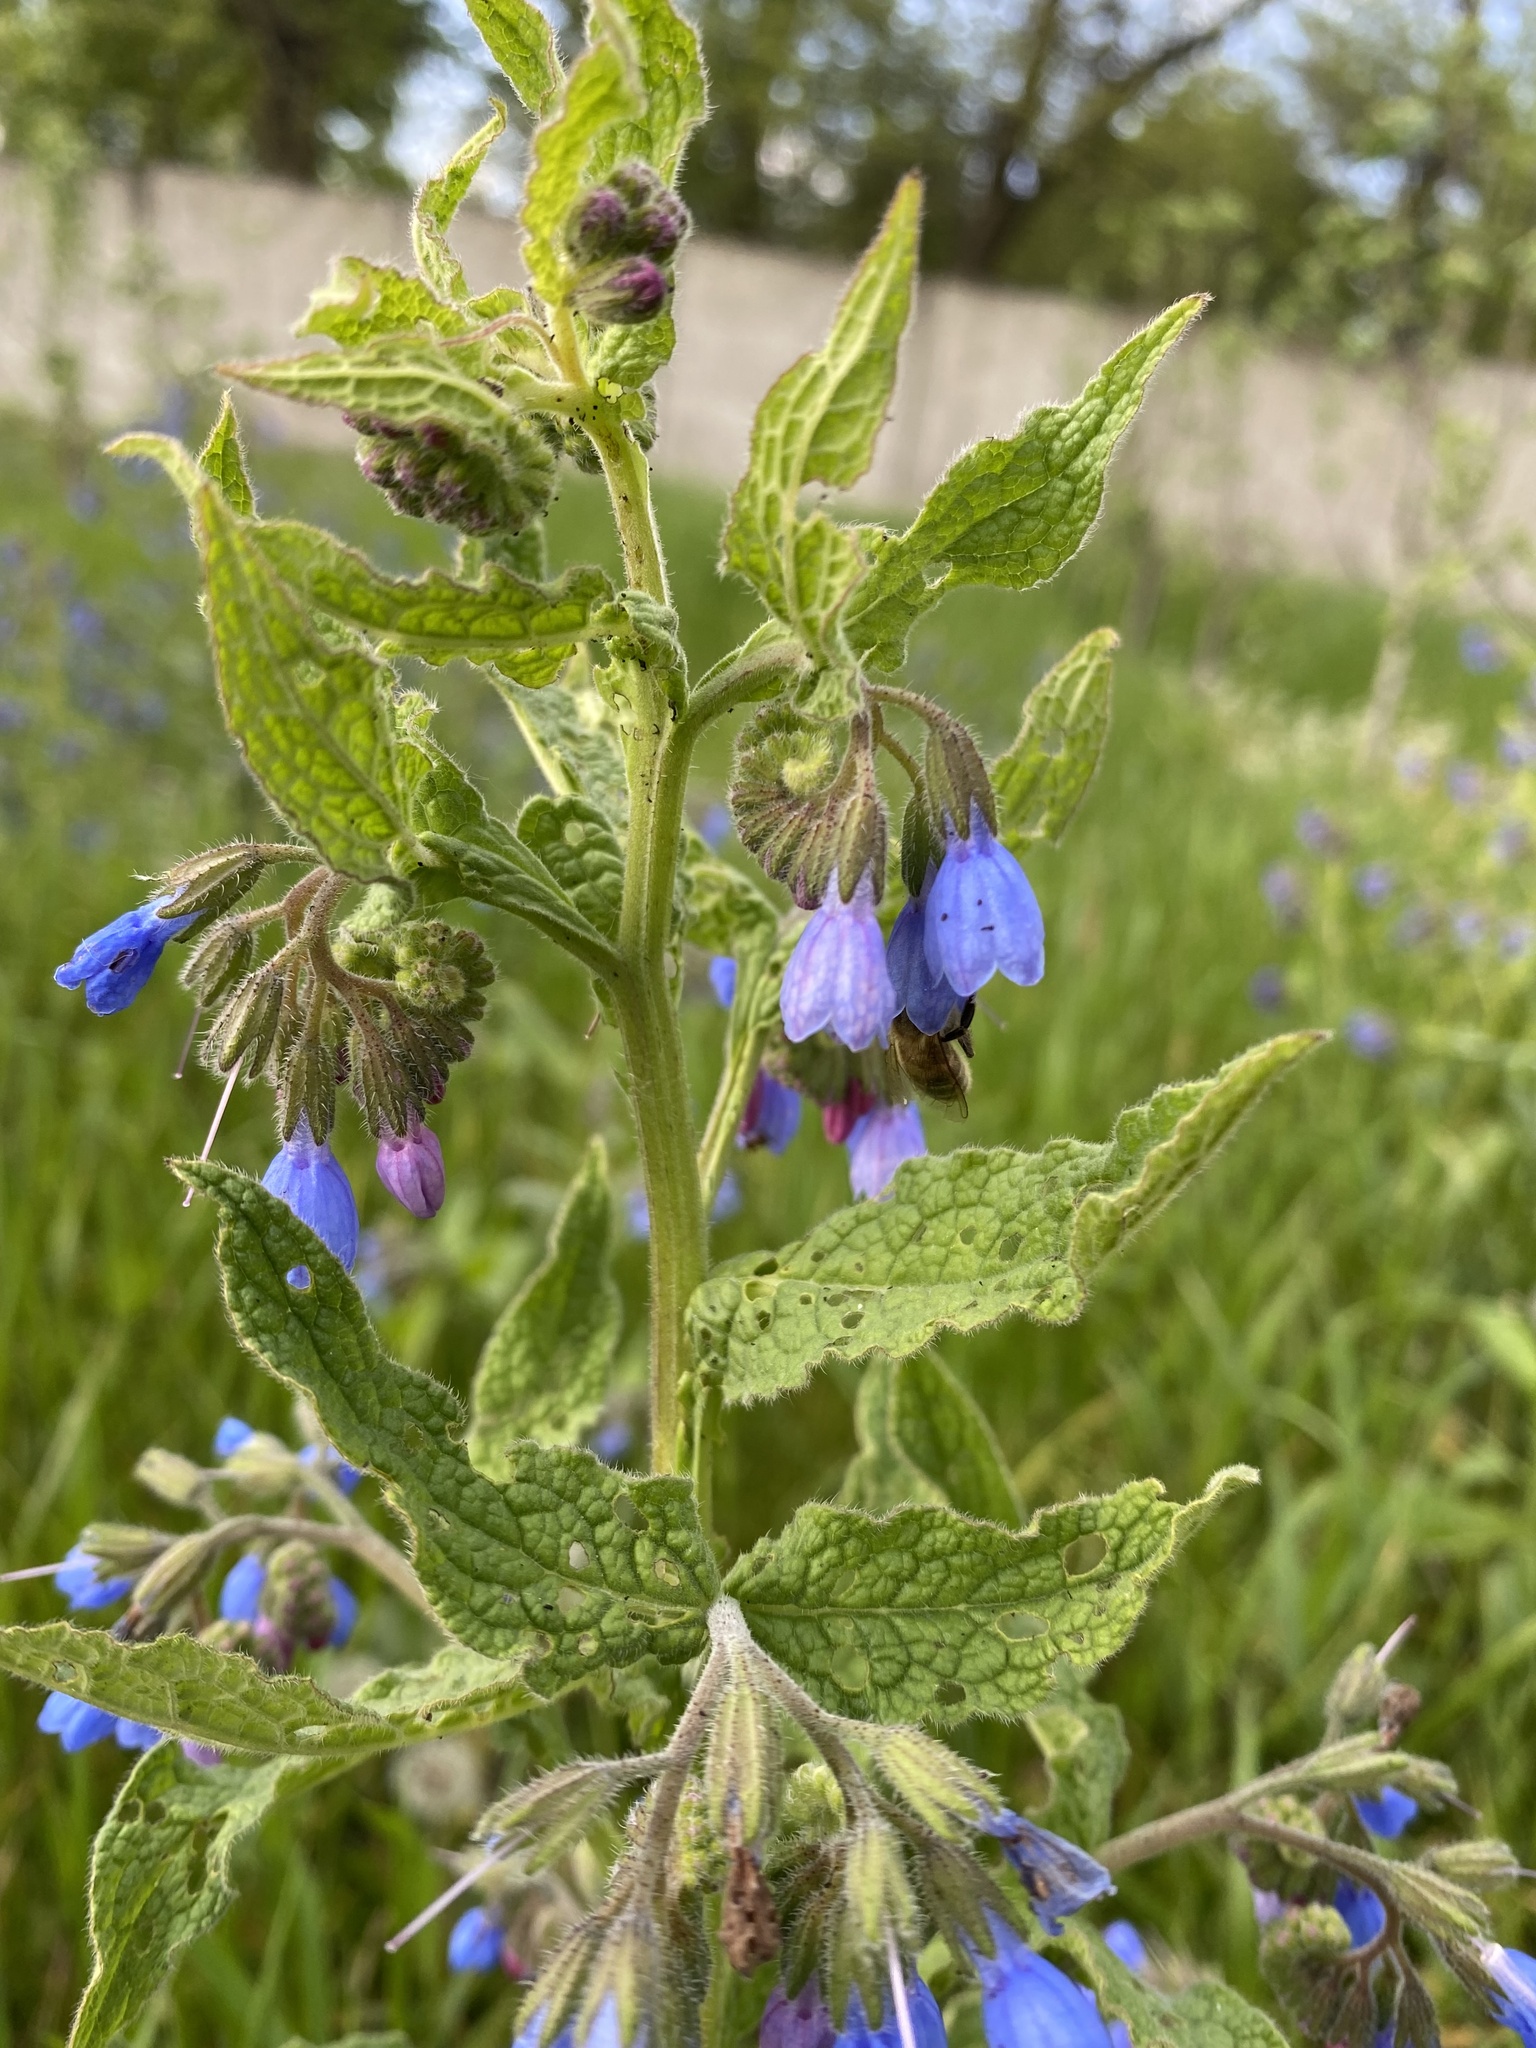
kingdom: Plantae
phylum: Tracheophyta
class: Magnoliopsida
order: Boraginales
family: Boraginaceae
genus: Symphytum
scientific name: Symphytum asperum
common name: Prickly comfrey
